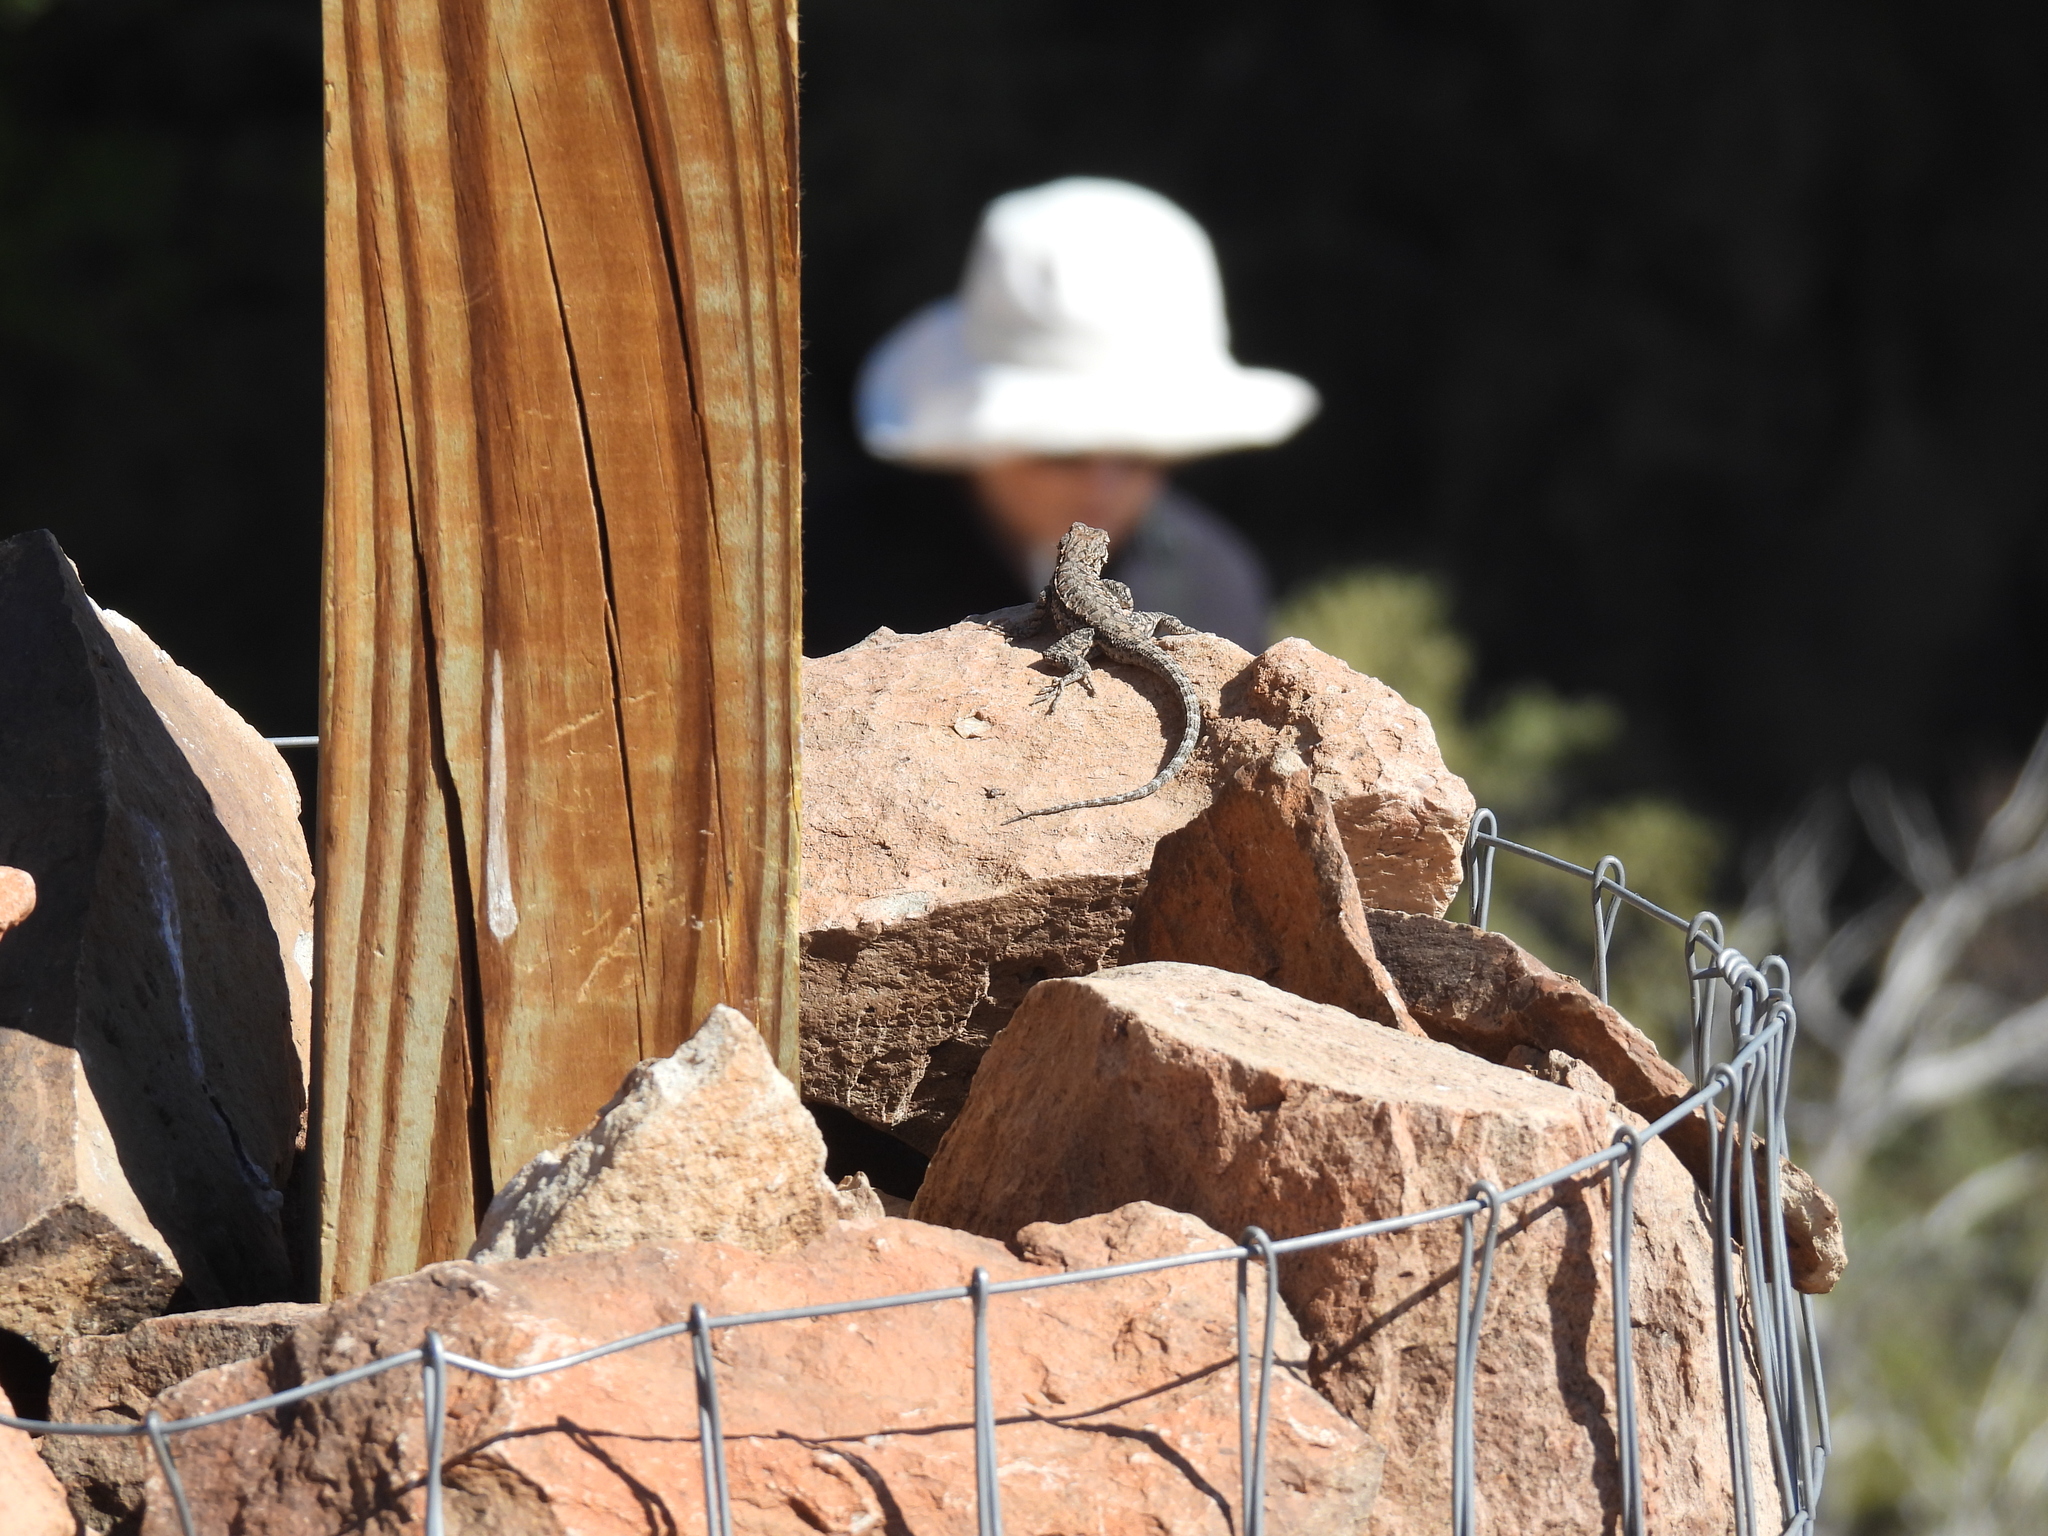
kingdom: Animalia
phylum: Chordata
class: Squamata
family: Phrynosomatidae
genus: Urosaurus
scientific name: Urosaurus ornatus
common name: Ornate tree lizard
